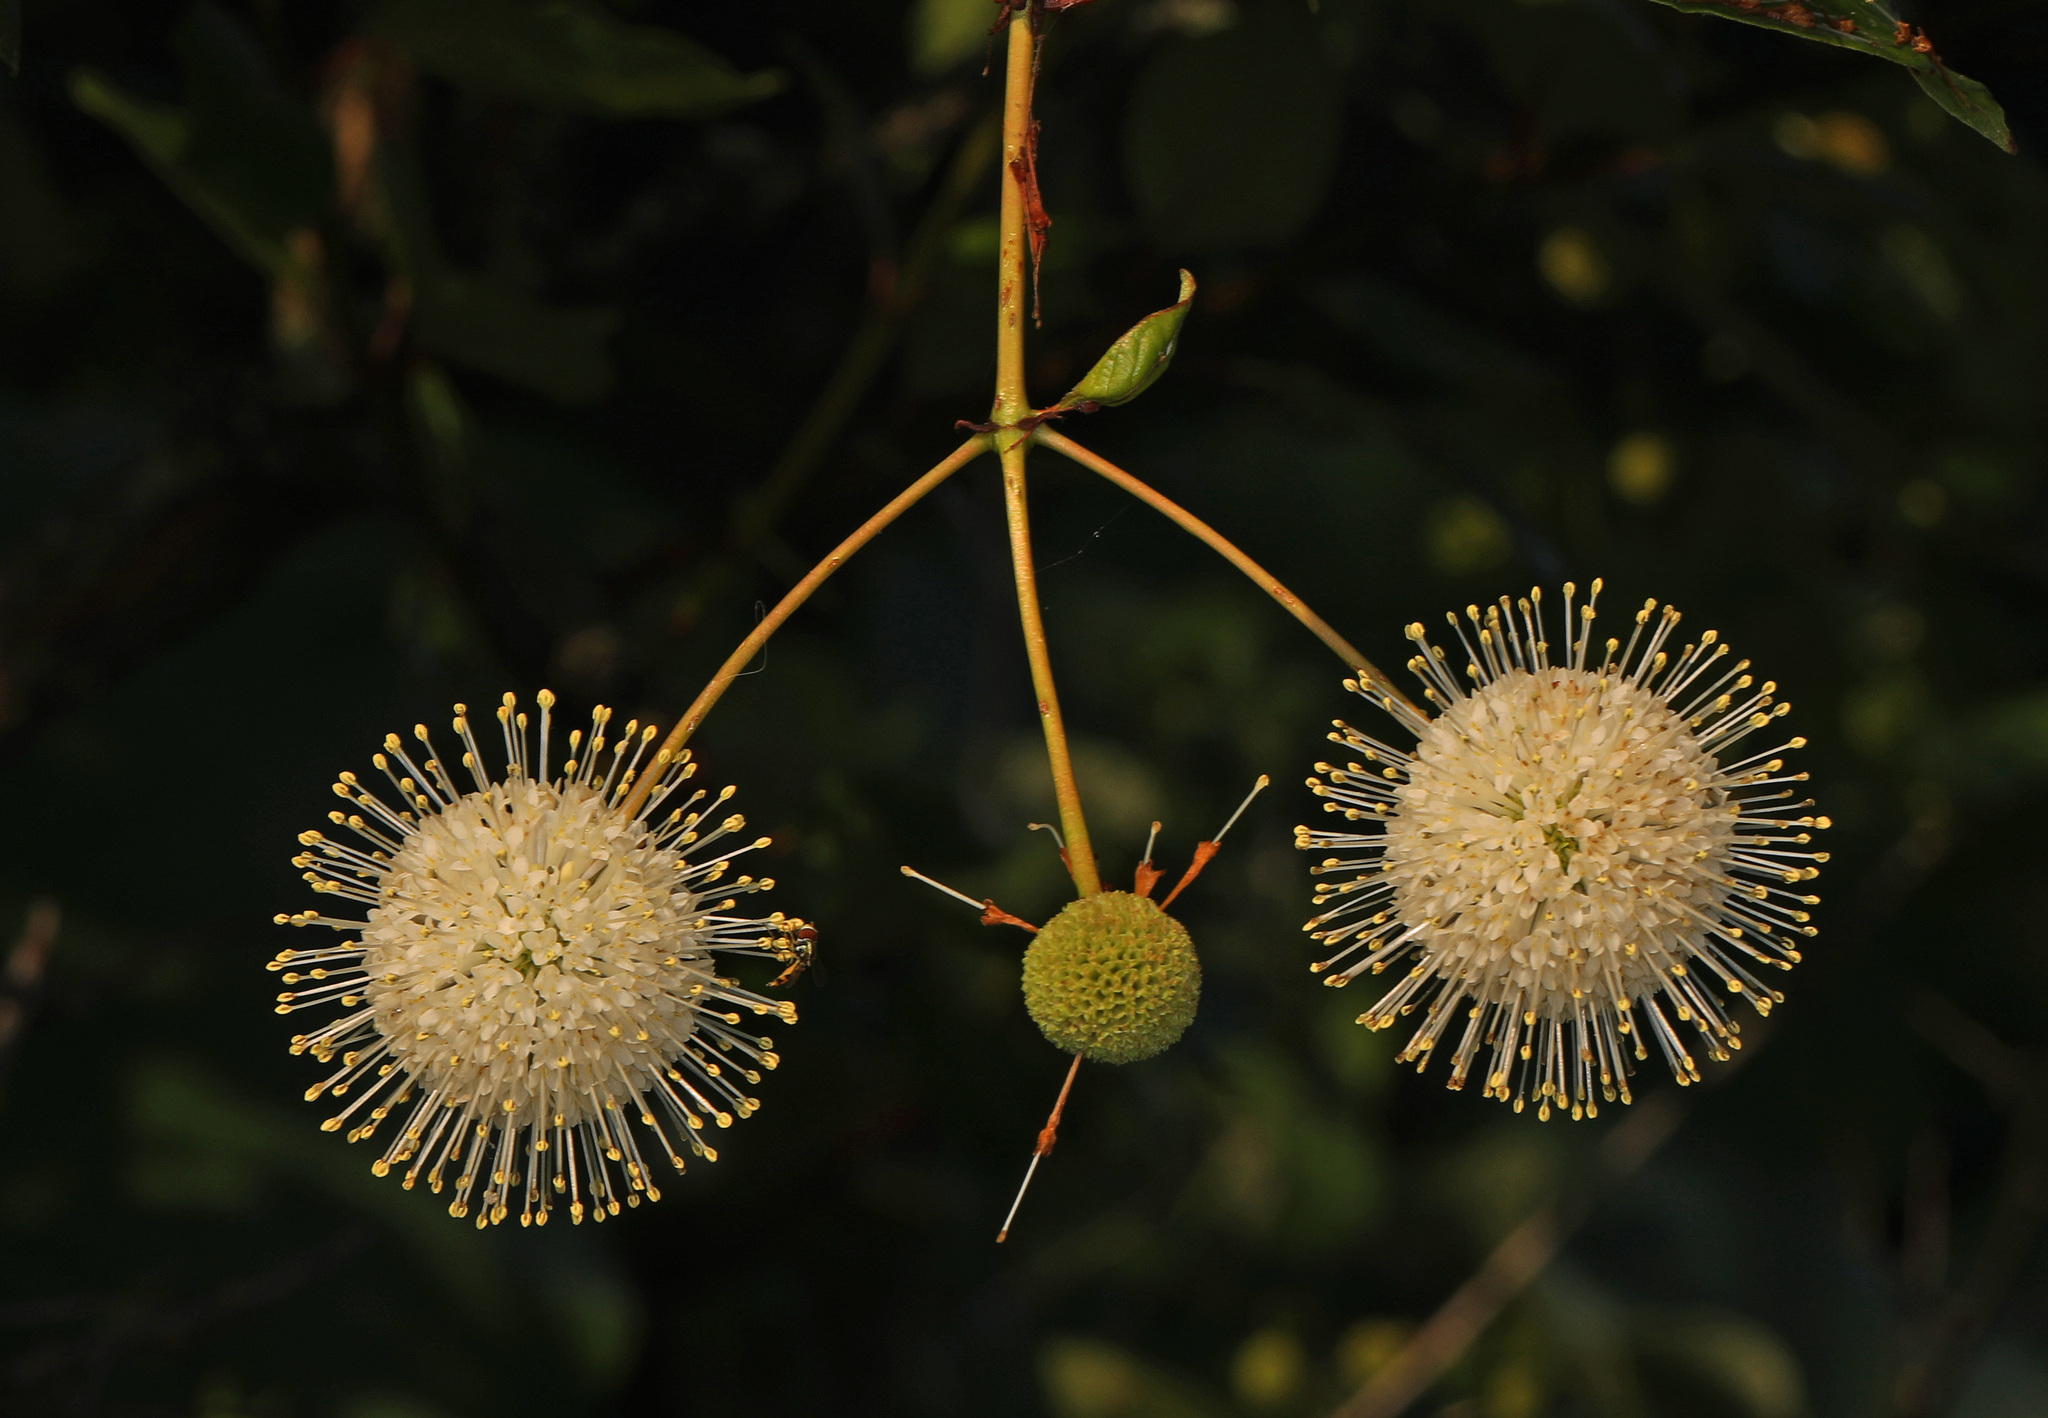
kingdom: Plantae
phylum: Tracheophyta
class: Magnoliopsida
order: Gentianales
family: Rubiaceae
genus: Cephalanthus
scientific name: Cephalanthus occidentalis
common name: Button-willow
